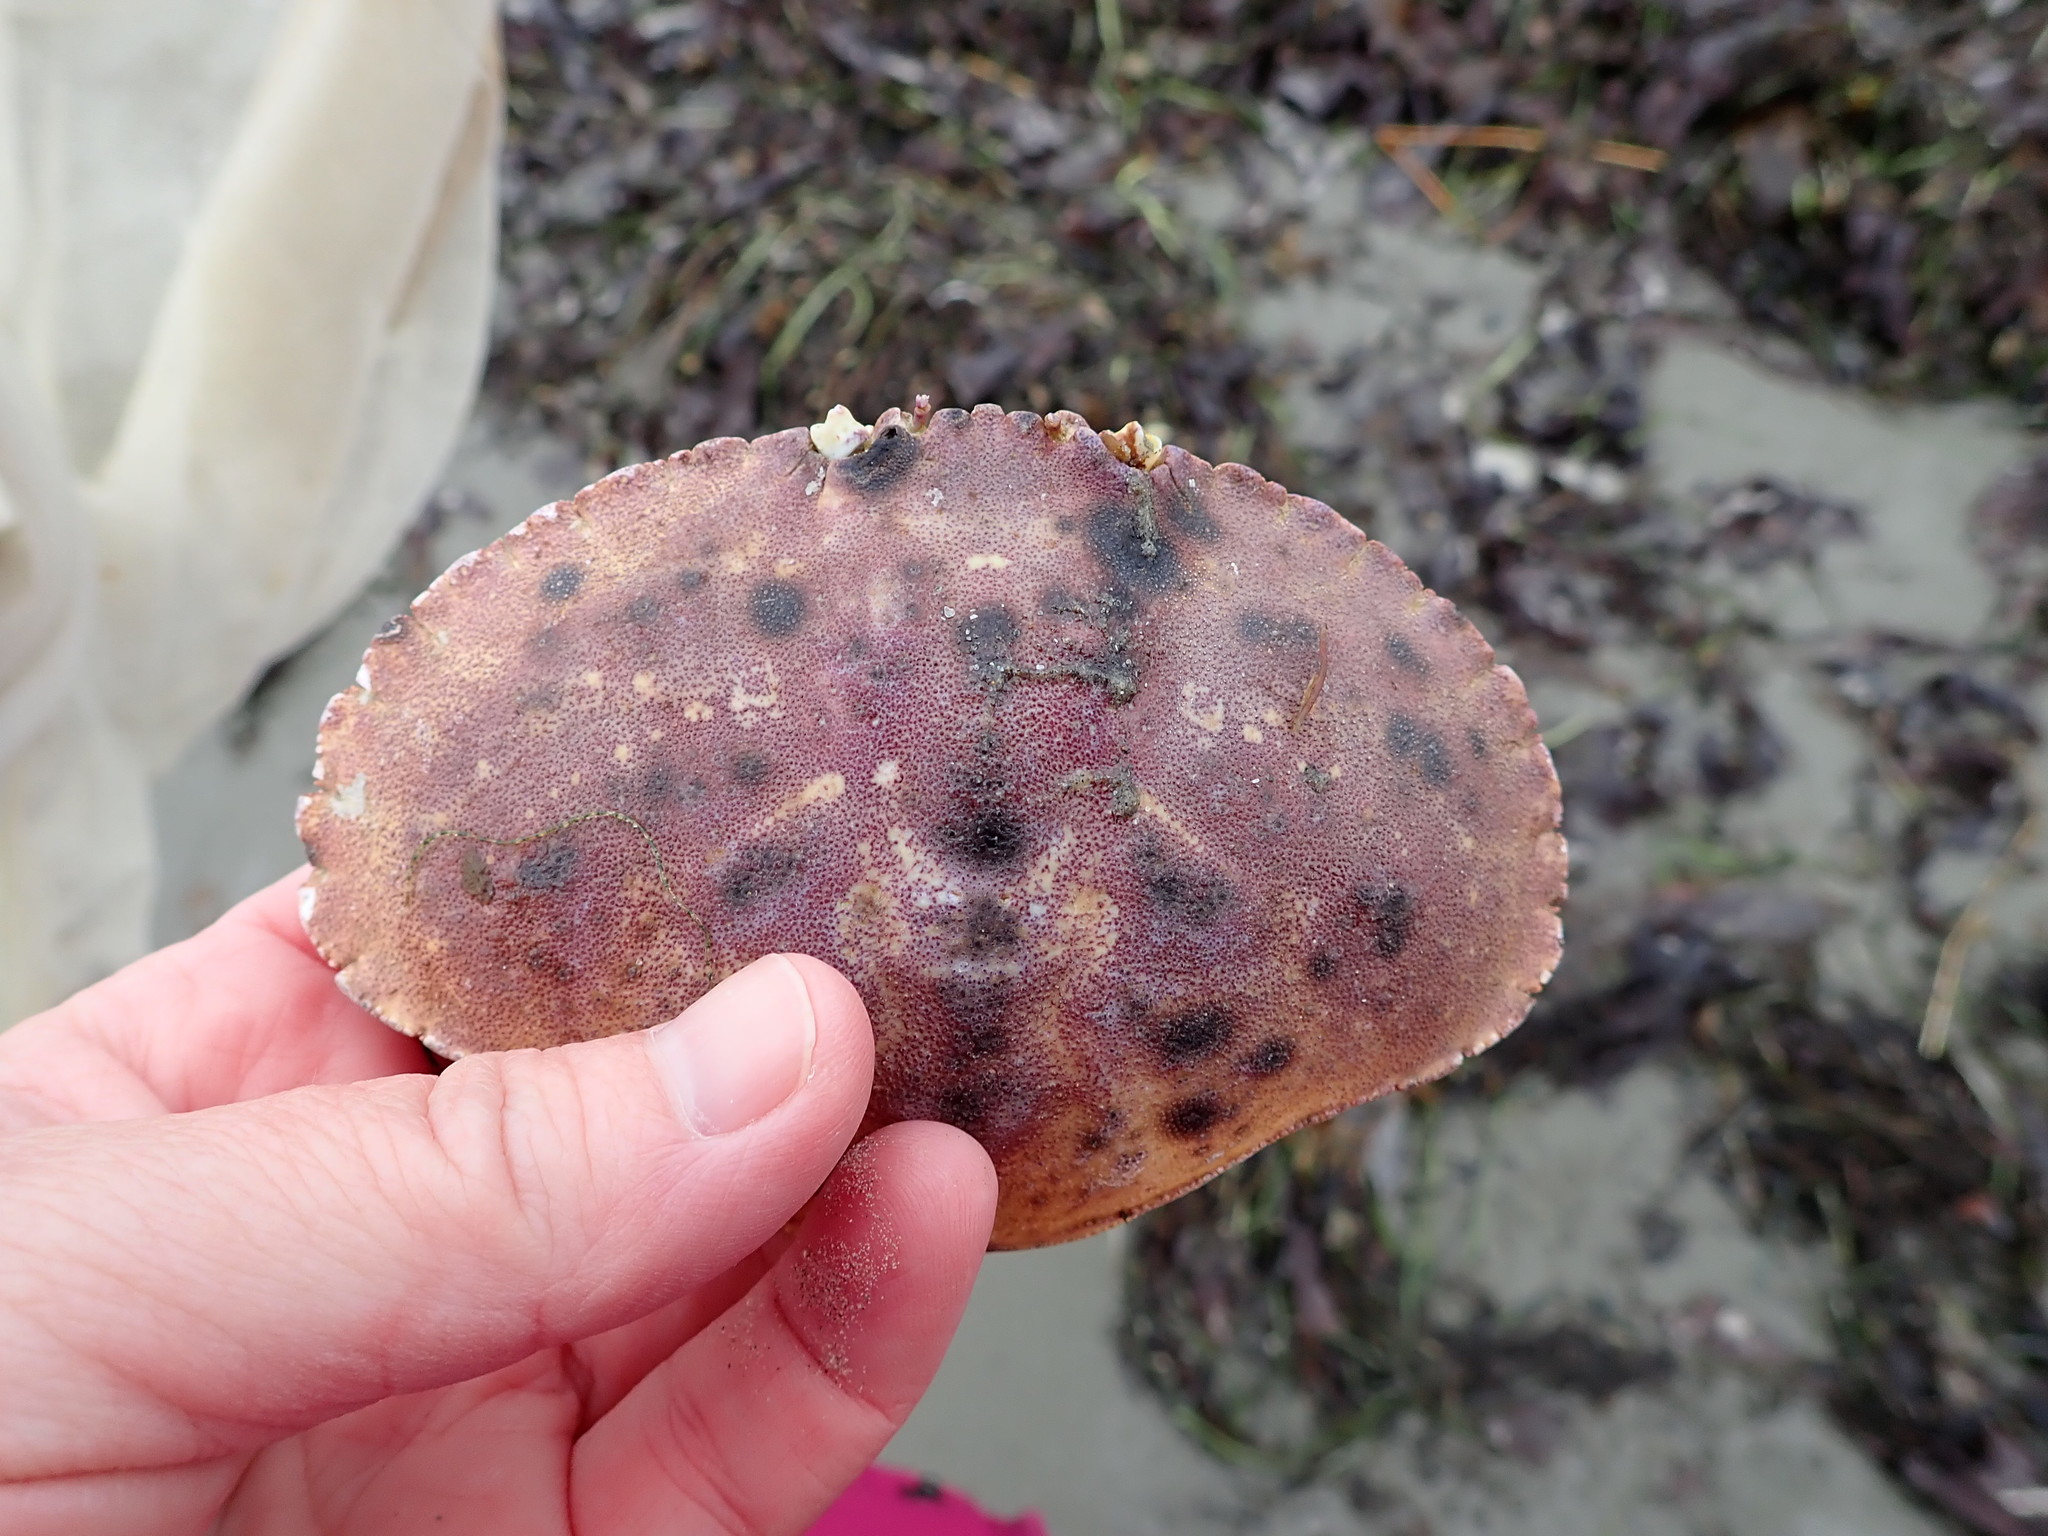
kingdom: Animalia
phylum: Arthropoda
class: Malacostraca
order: Decapoda
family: Cancridae
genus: Cancer
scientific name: Cancer borealis
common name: Jonah crab
